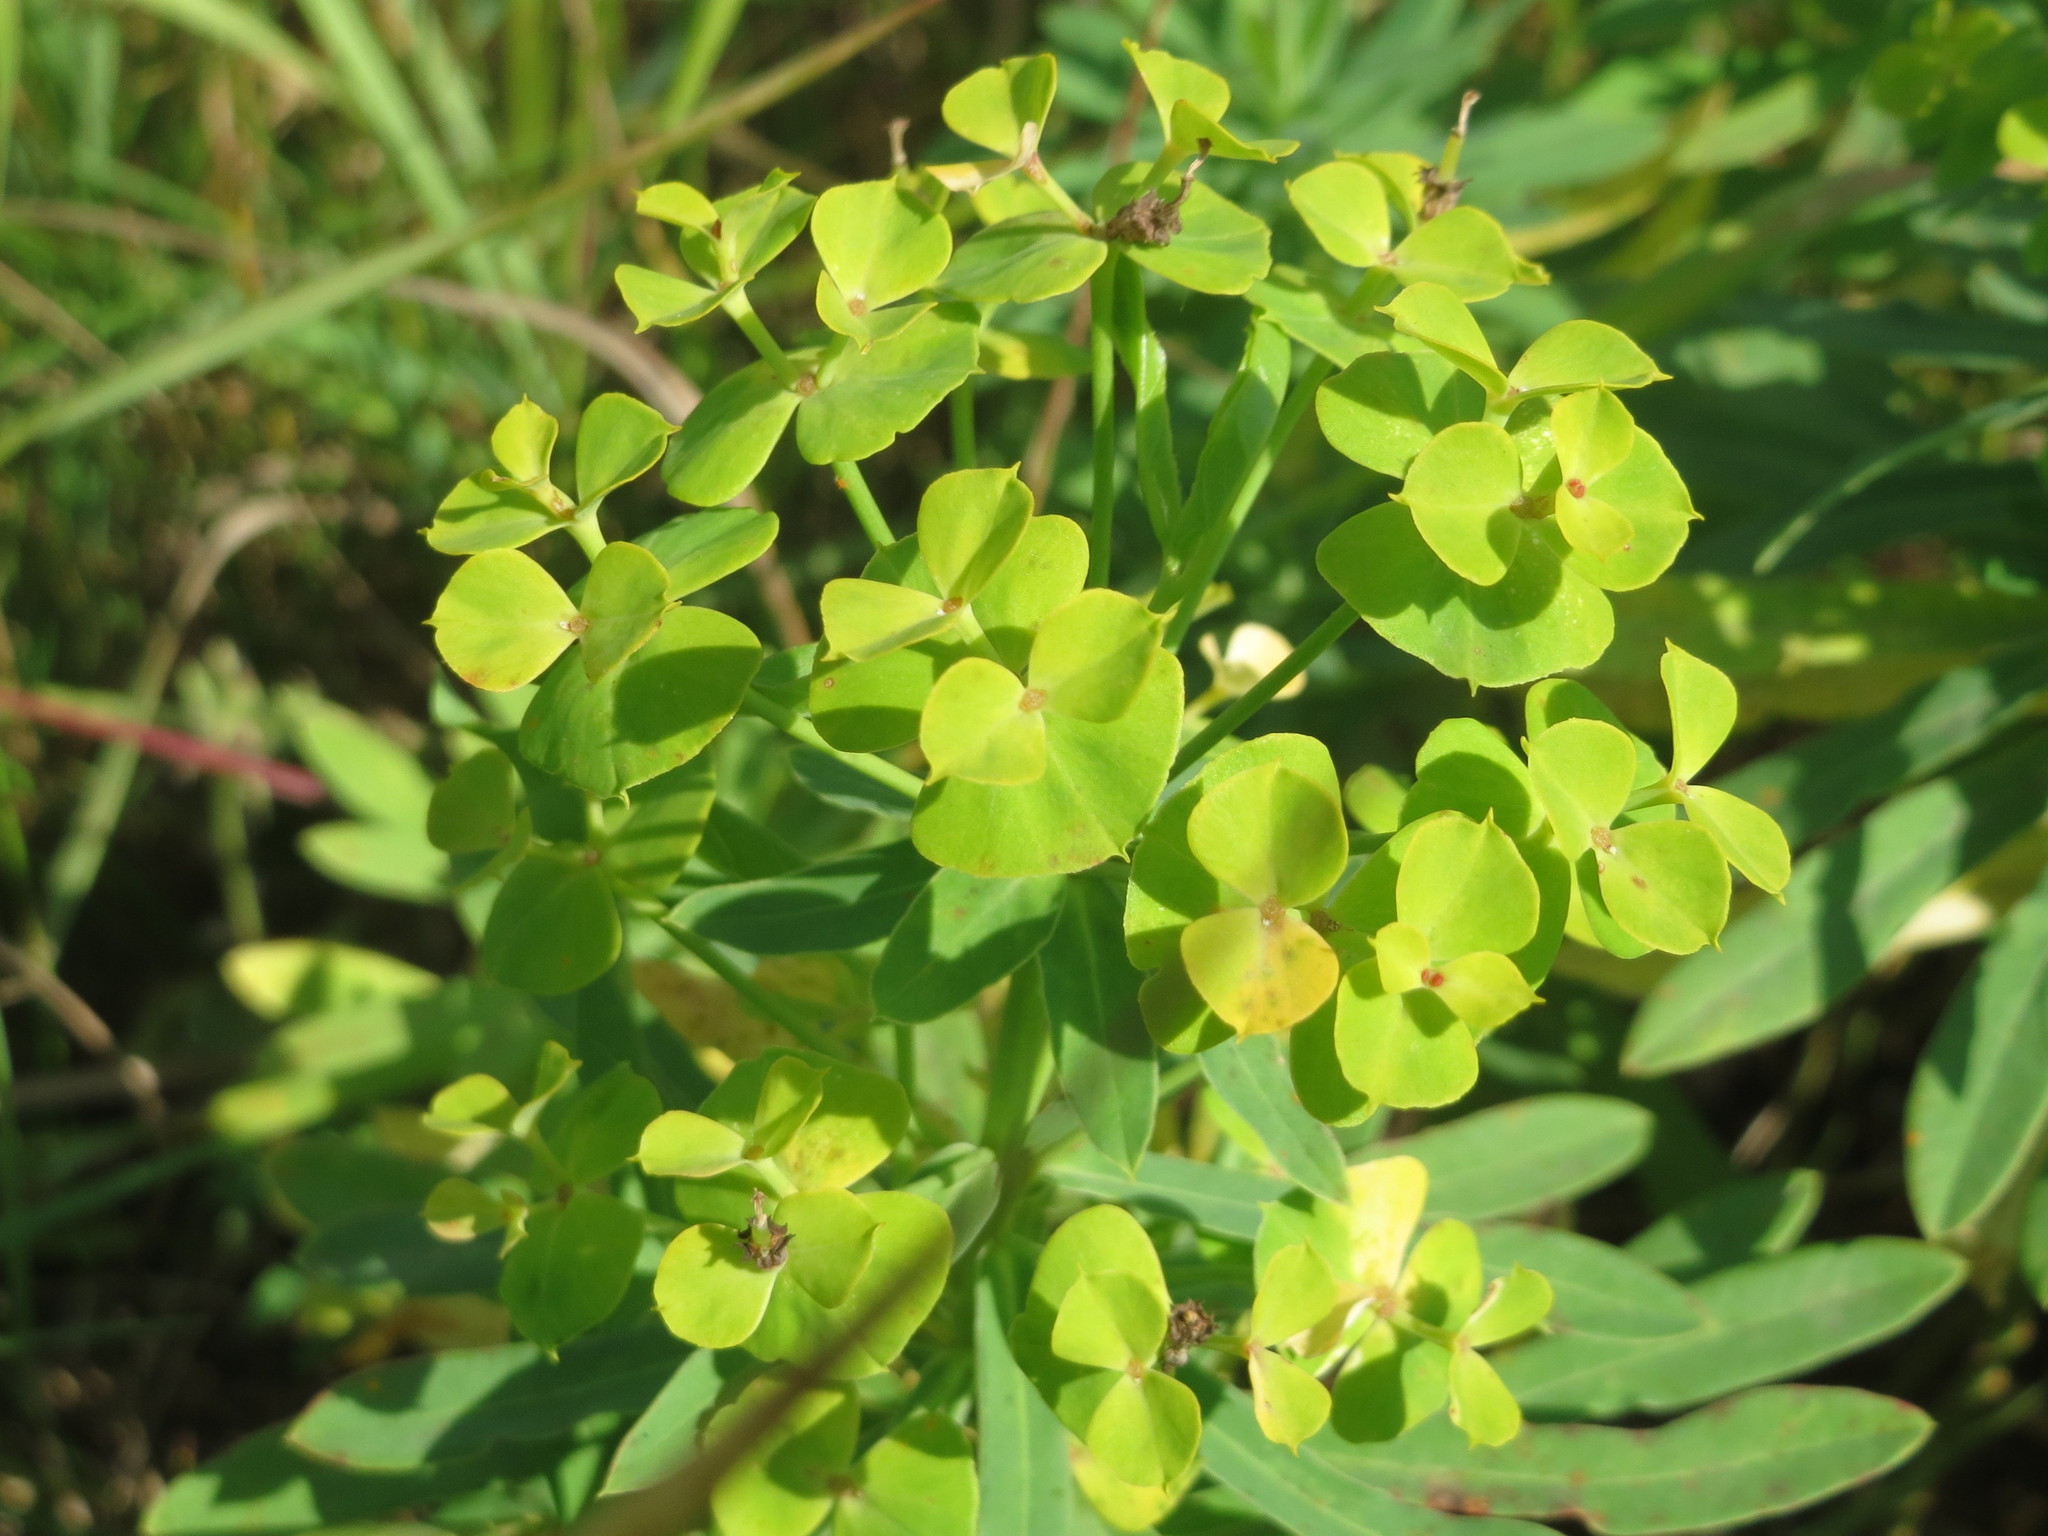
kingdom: Plantae
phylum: Tracheophyta
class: Magnoliopsida
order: Malpighiales
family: Euphorbiaceae
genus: Euphorbia
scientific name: Euphorbia esula
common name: Leafy spurge
